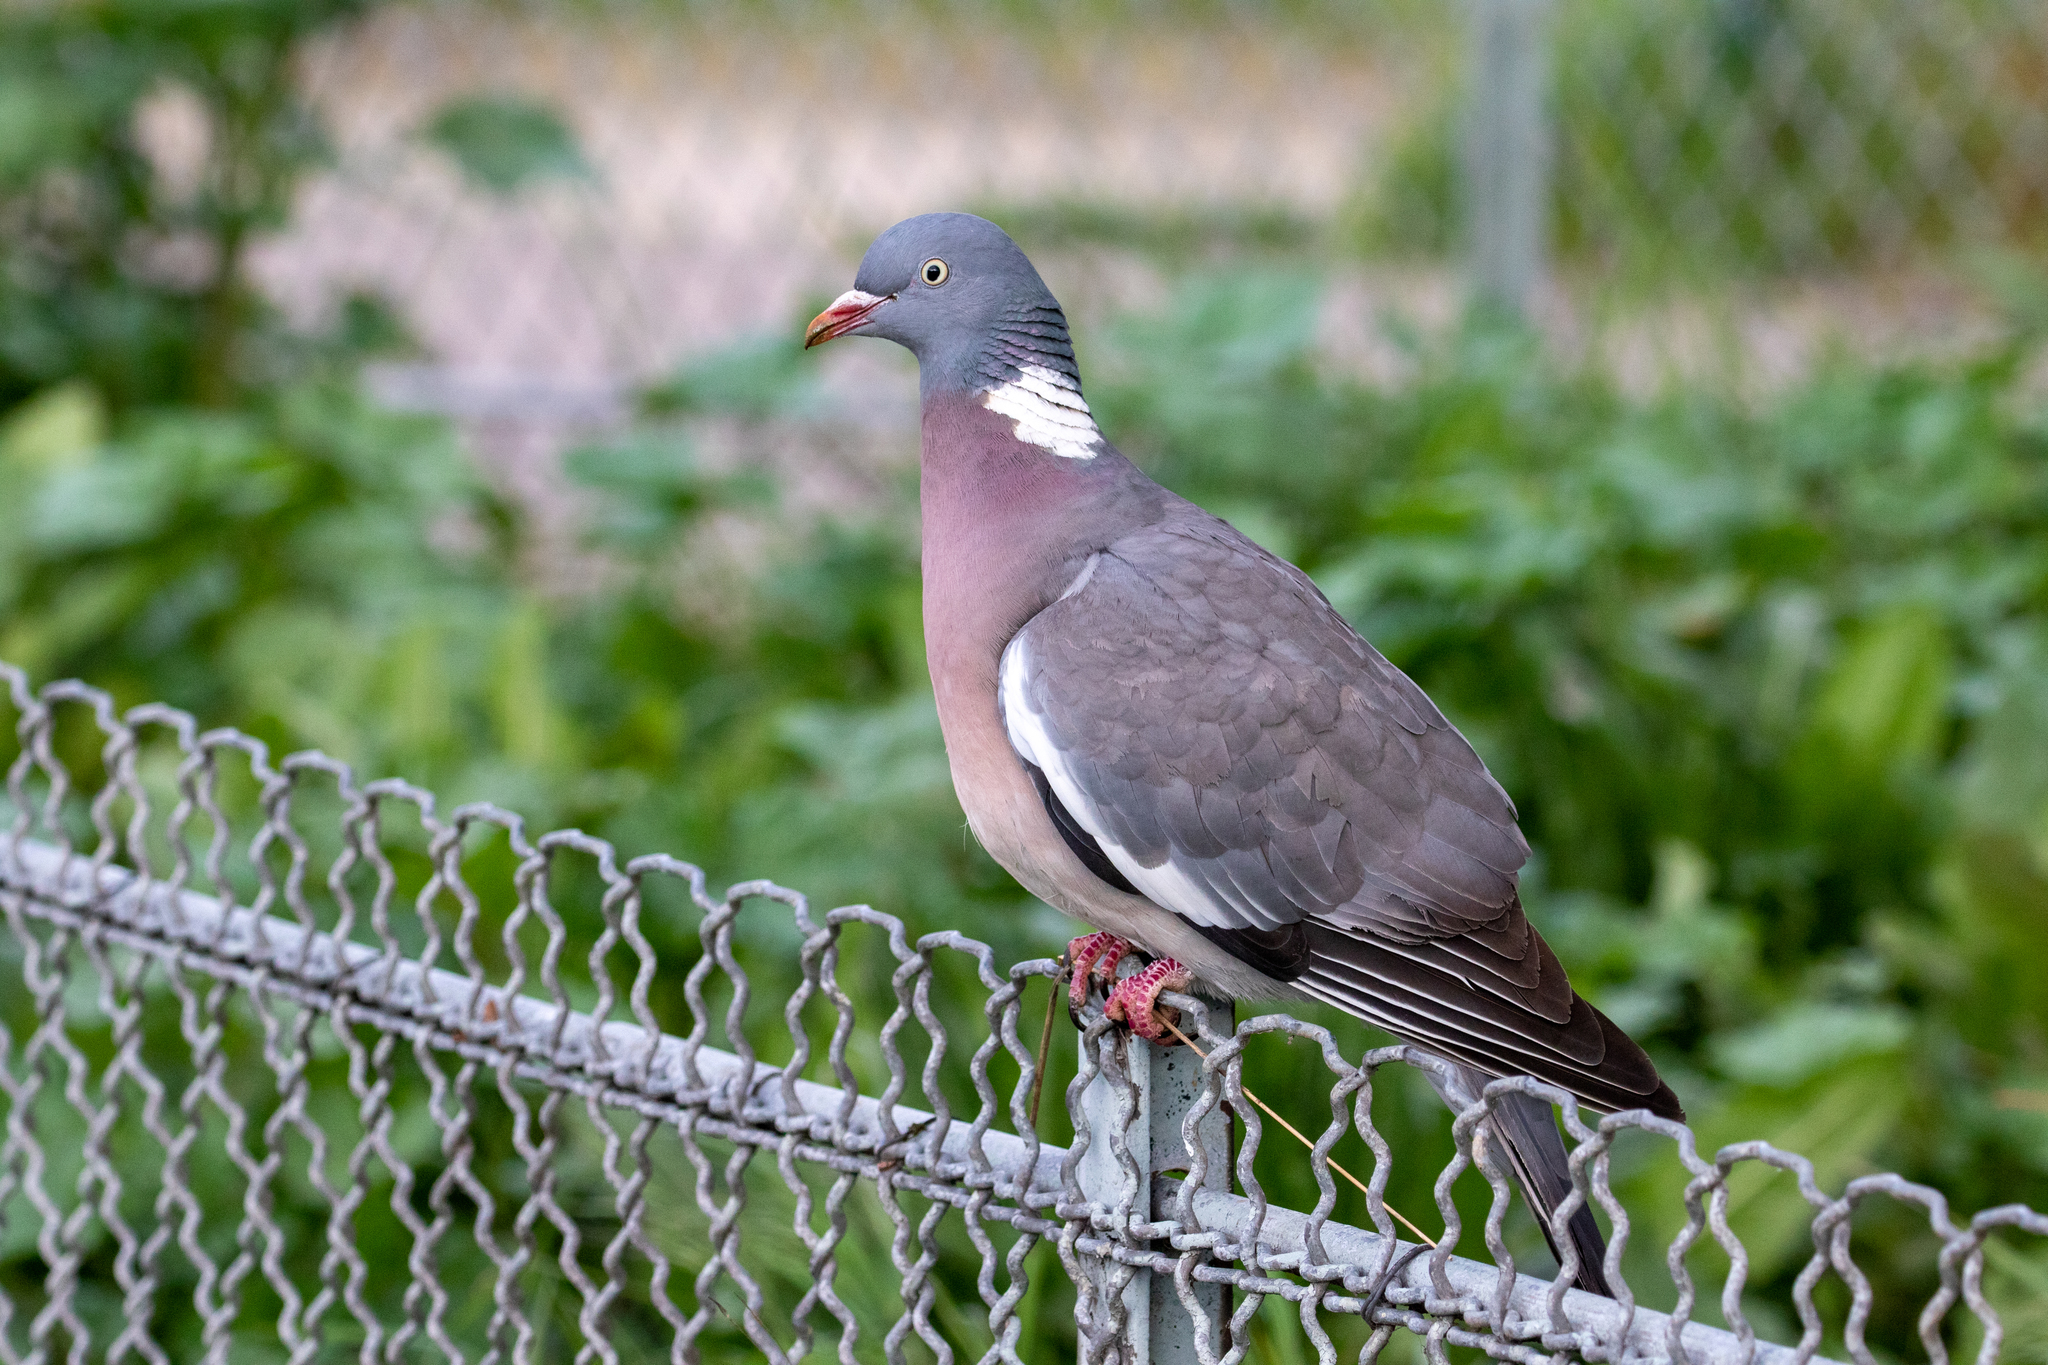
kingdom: Animalia
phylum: Chordata
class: Aves
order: Columbiformes
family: Columbidae
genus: Columba
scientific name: Columba palumbus
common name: Common wood pigeon
